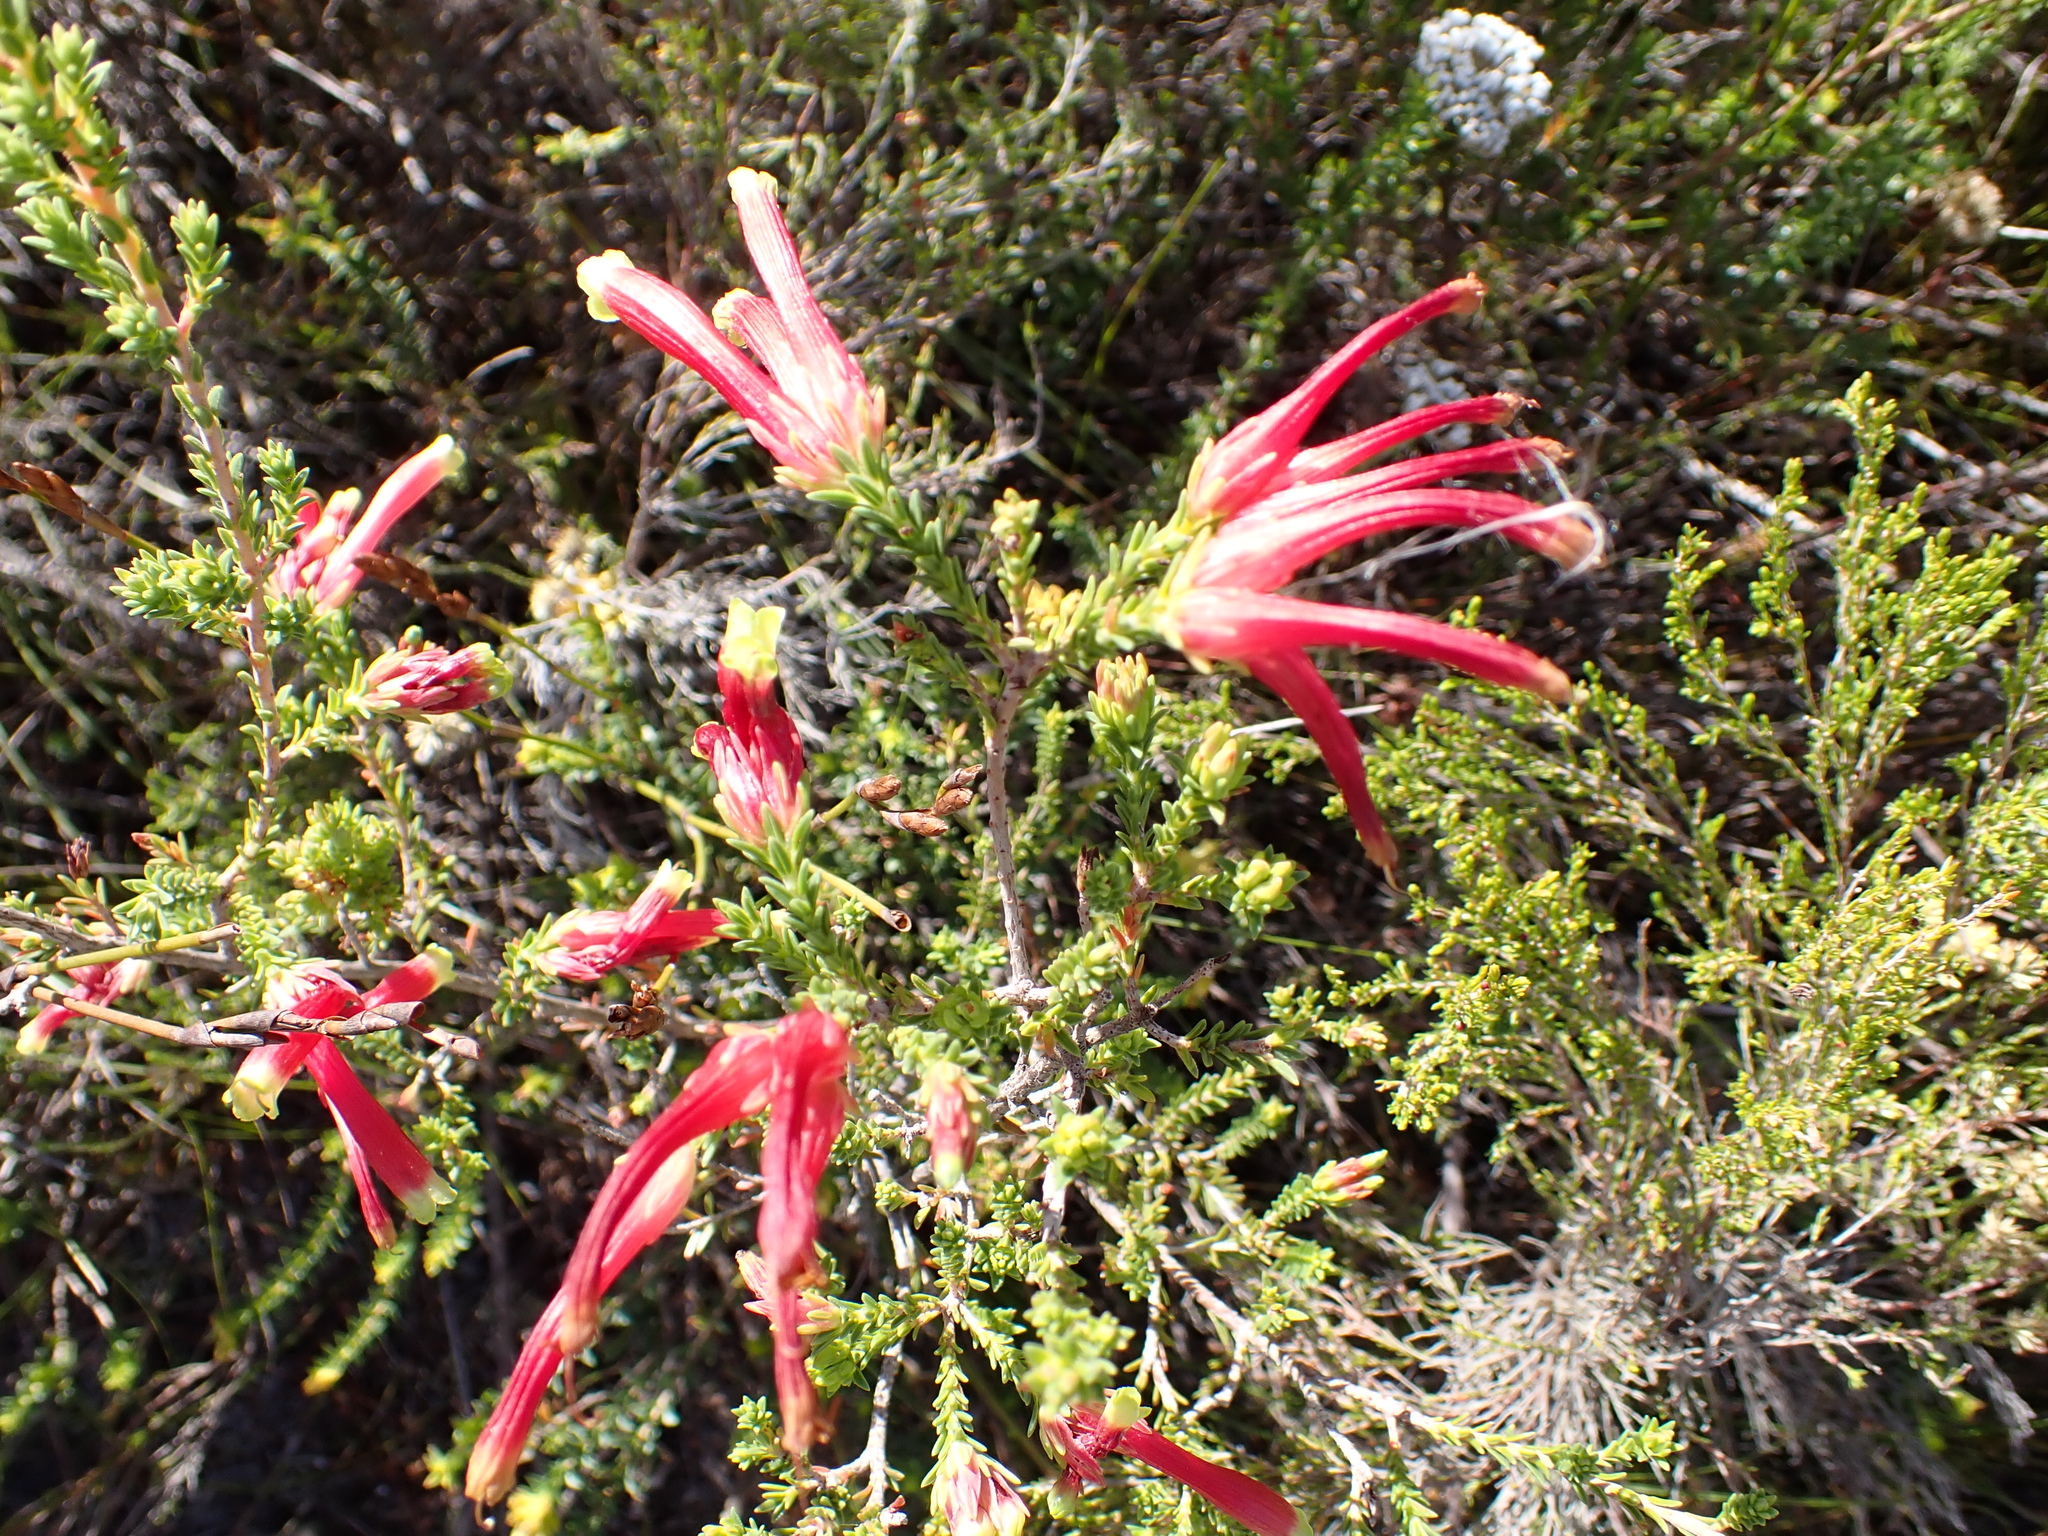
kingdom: Plantae
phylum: Tracheophyta
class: Magnoliopsida
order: Ericales
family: Ericaceae
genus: Erica
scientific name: Erica versicolor
